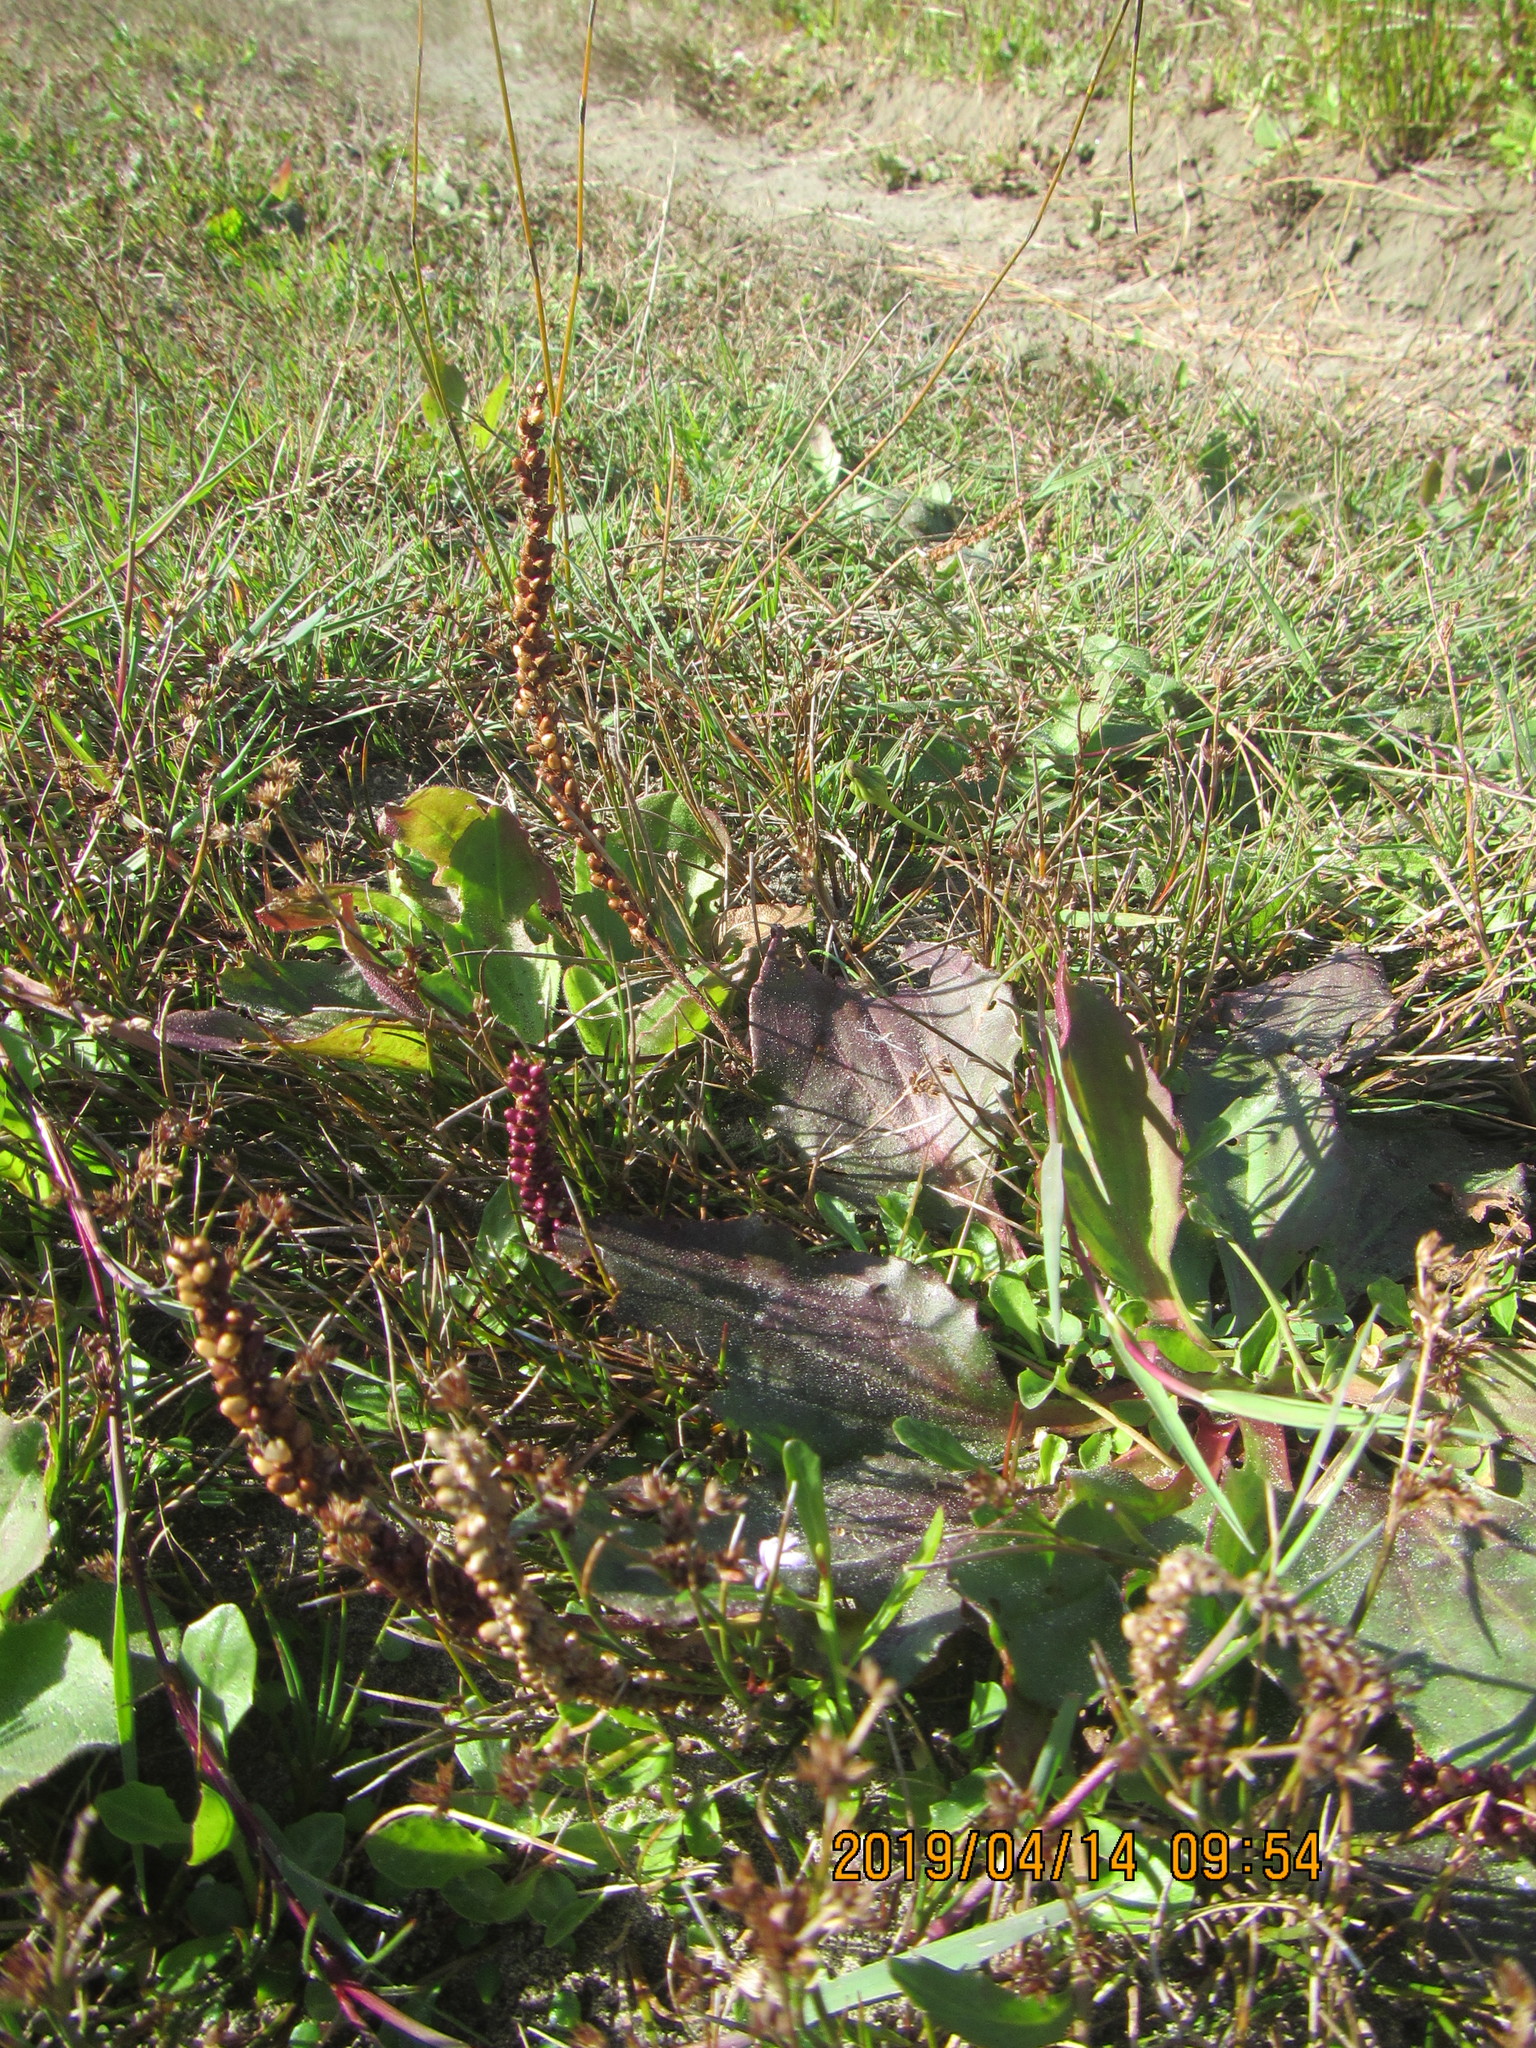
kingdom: Plantae
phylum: Tracheophyta
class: Magnoliopsida
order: Lamiales
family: Plantaginaceae
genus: Plantago
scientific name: Plantago major
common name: Common plantain
